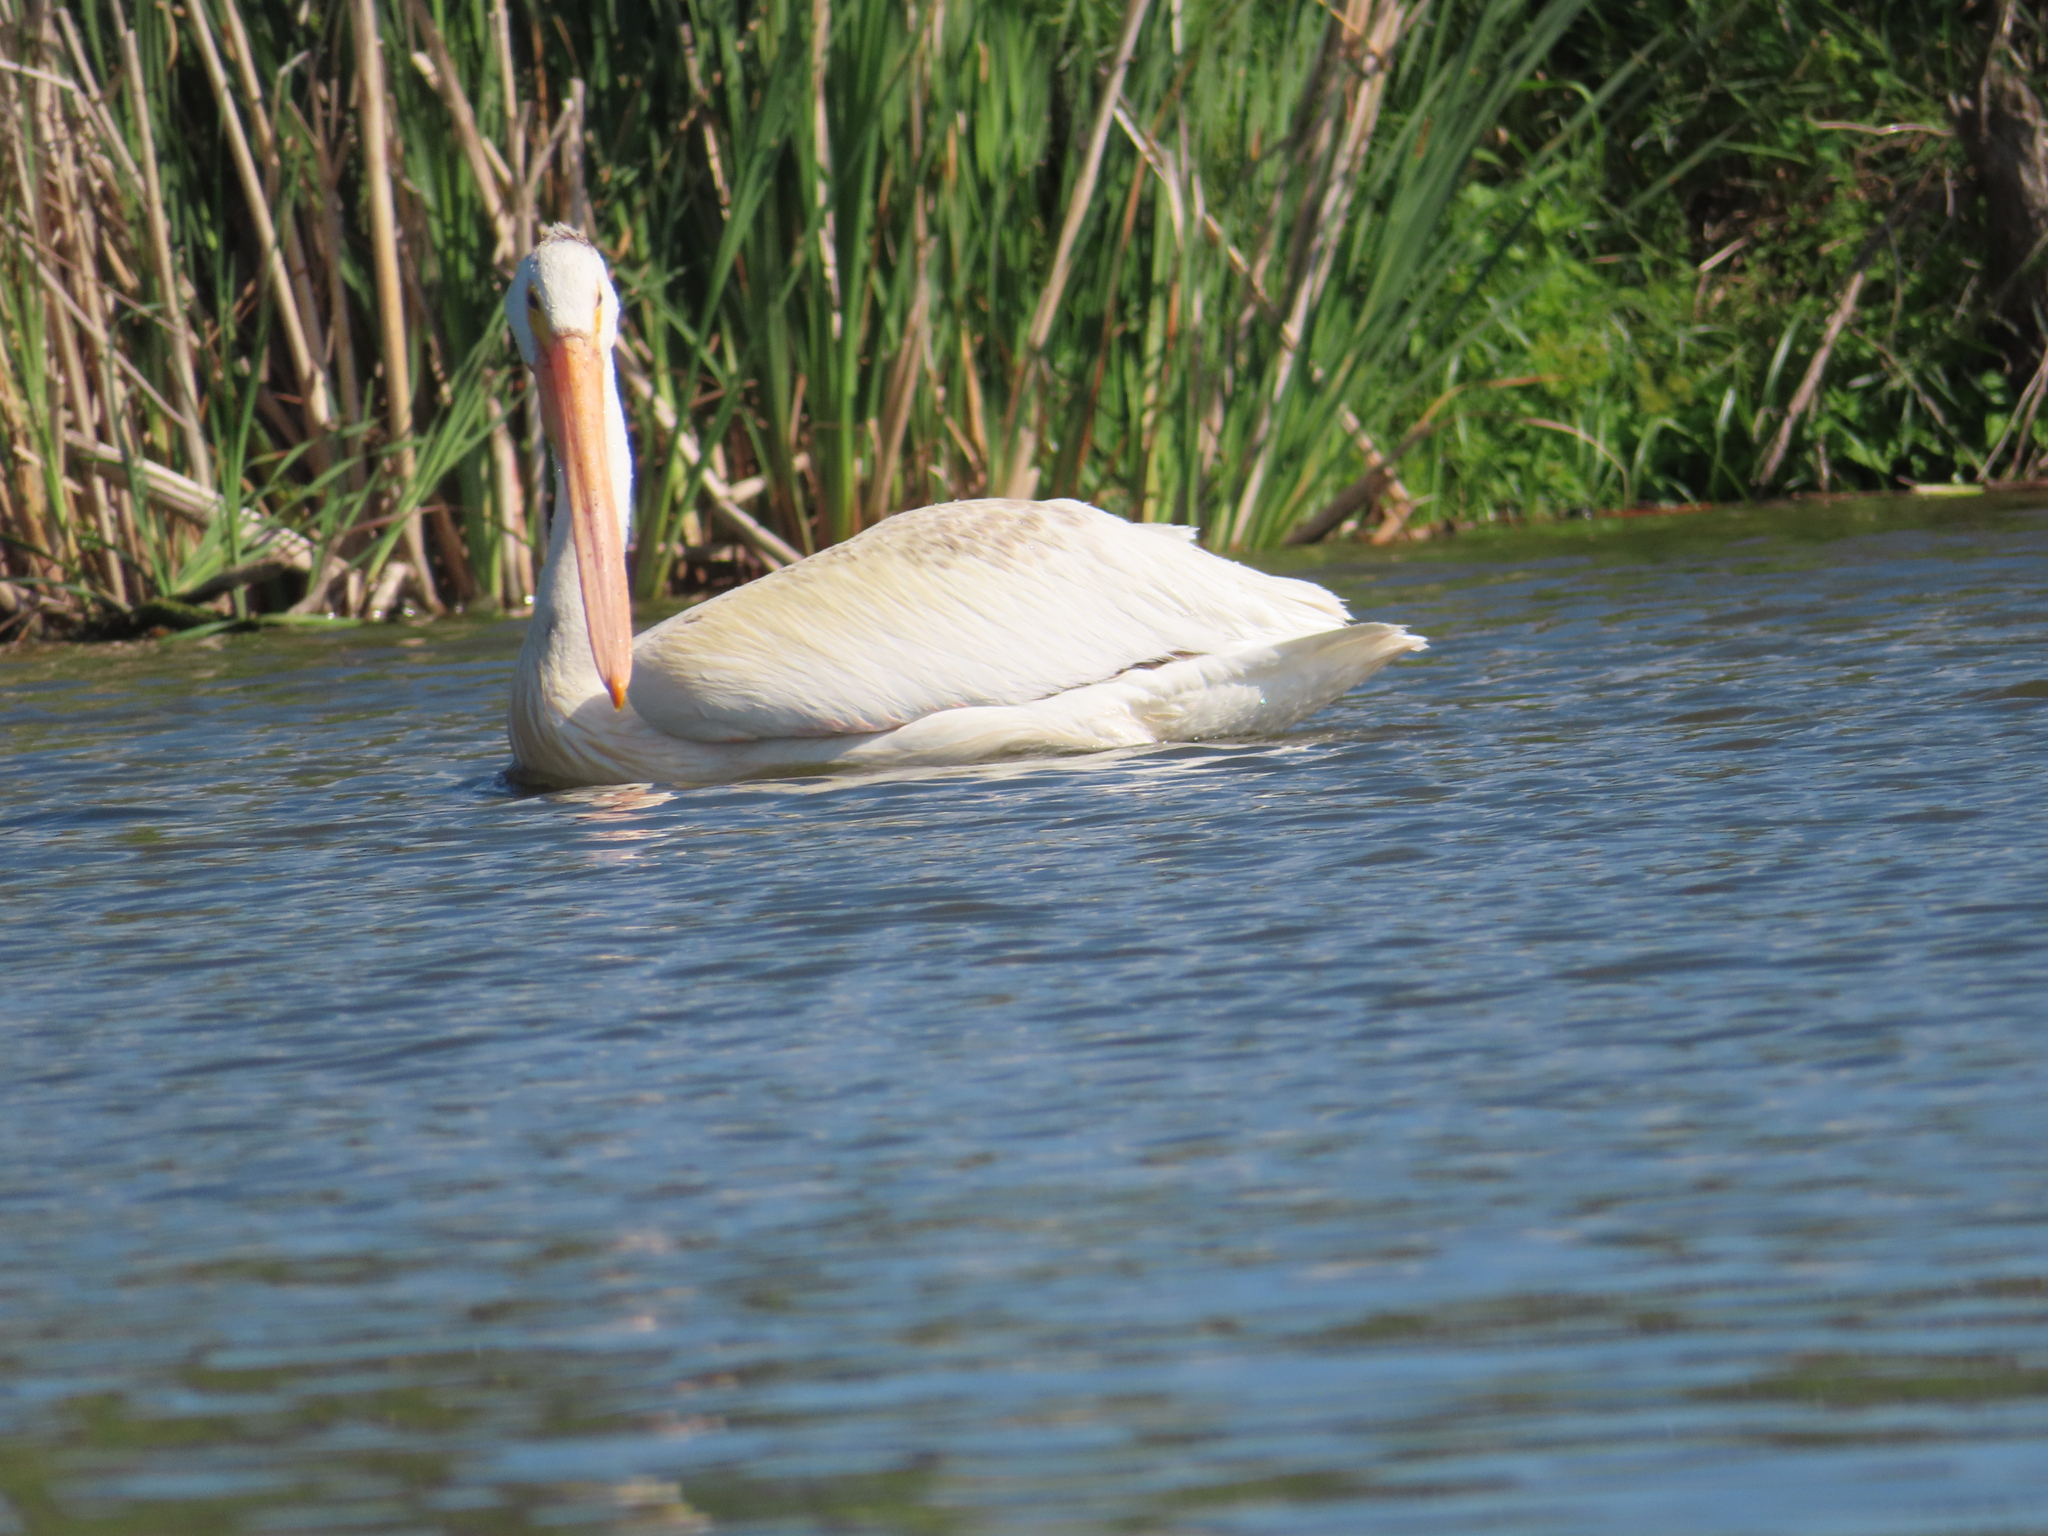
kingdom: Animalia
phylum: Chordata
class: Aves
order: Pelecaniformes
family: Pelecanidae
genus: Pelecanus
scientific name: Pelecanus erythrorhynchos
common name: American white pelican
